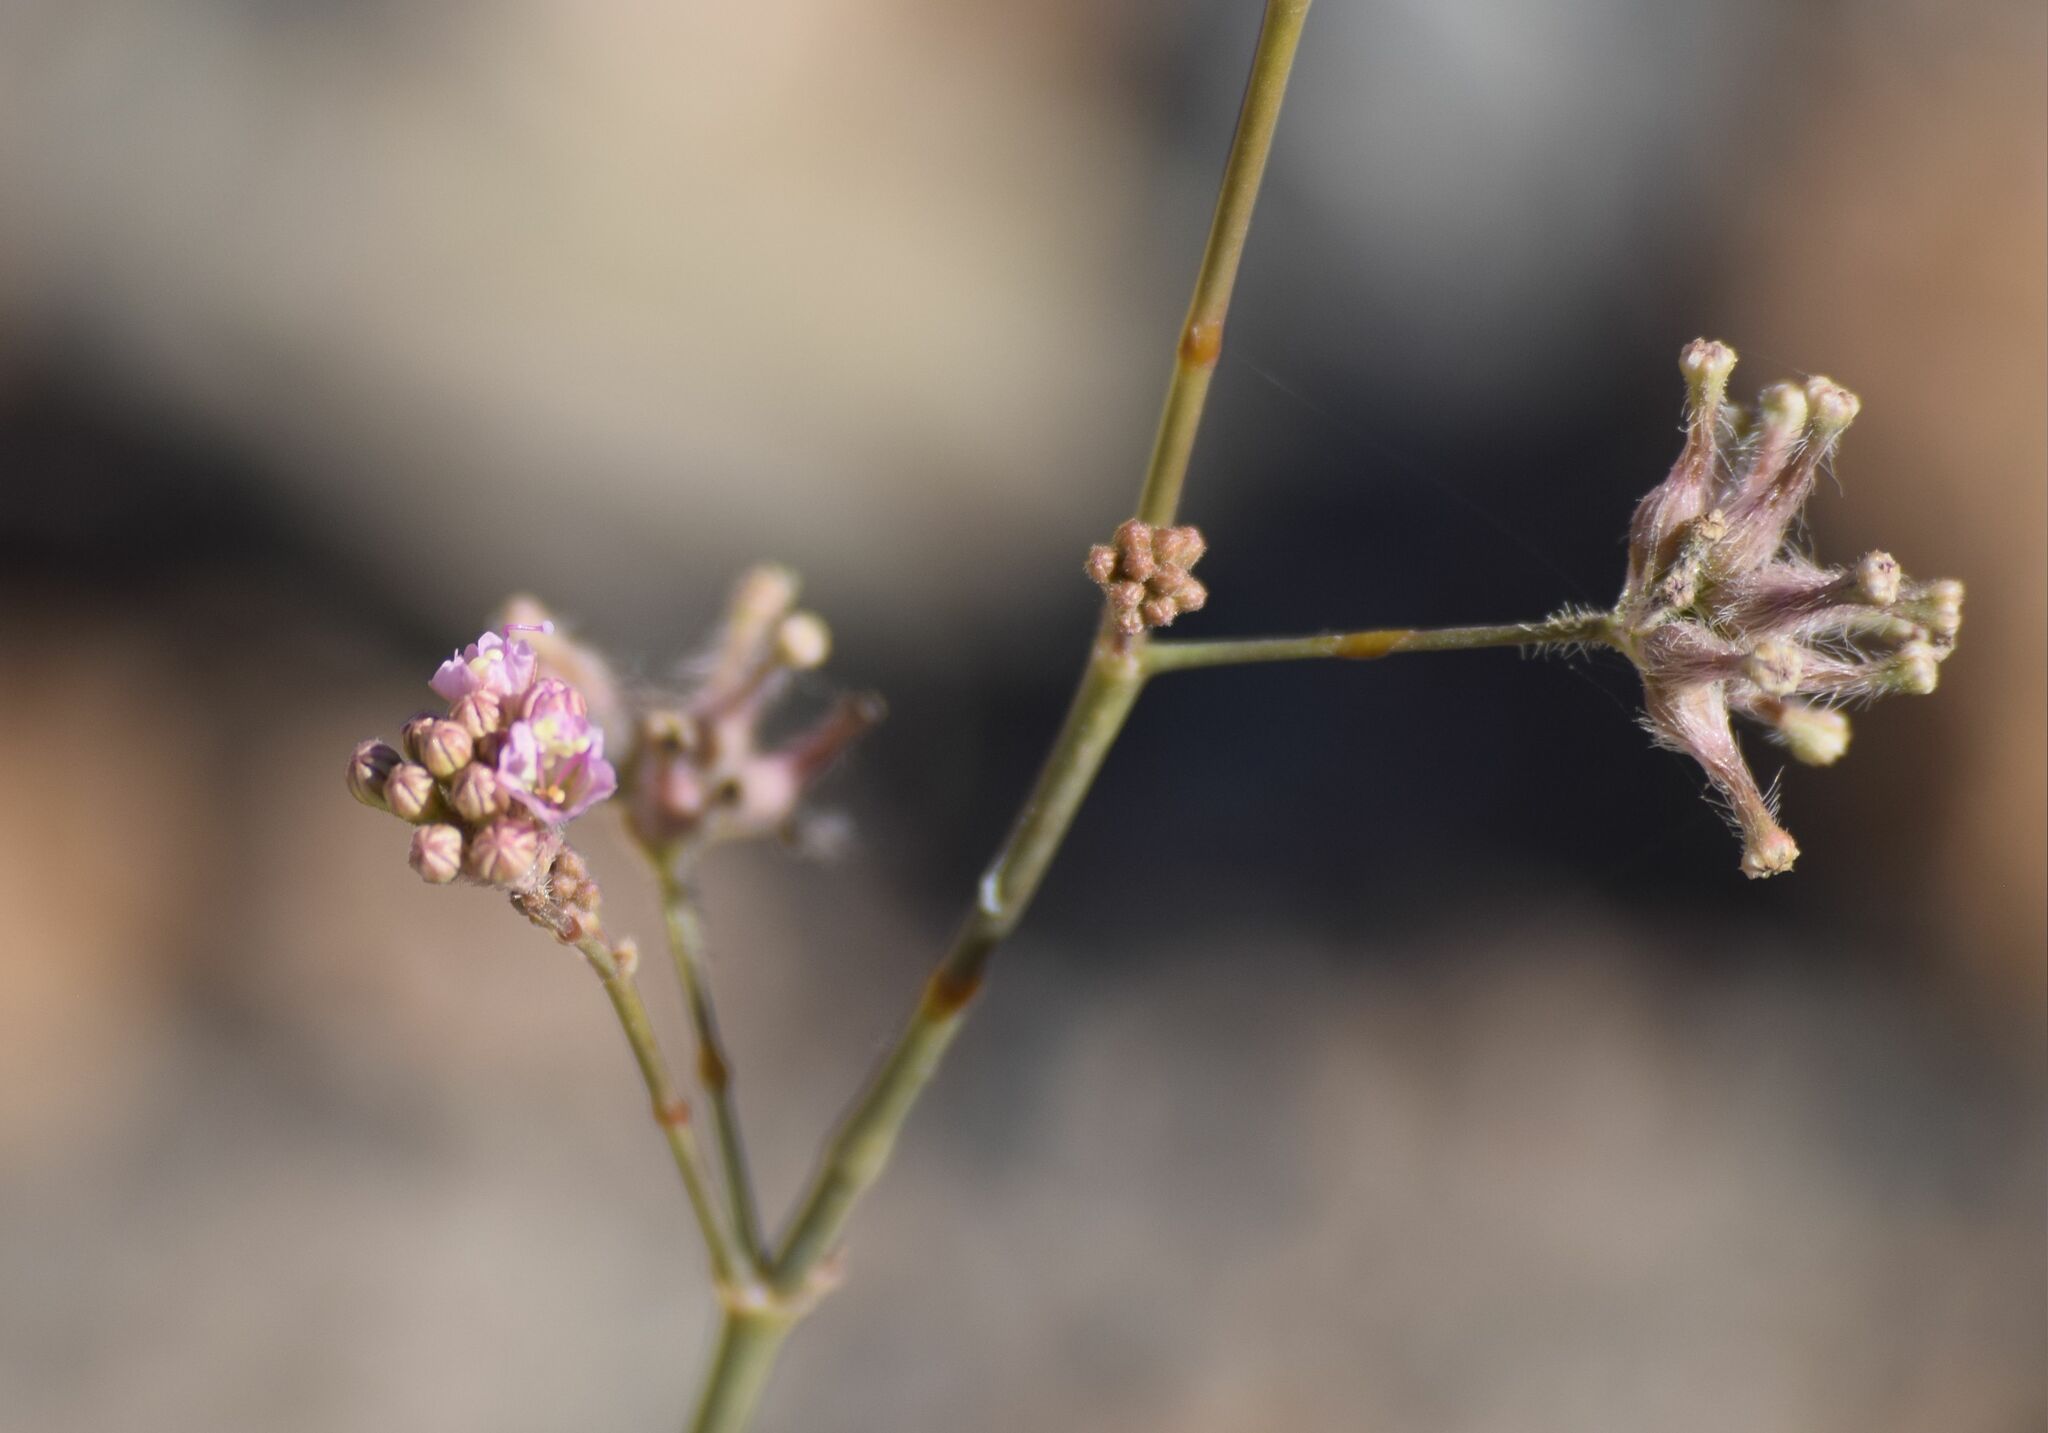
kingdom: Plantae
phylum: Tracheophyta
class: Magnoliopsida
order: Caryophyllales
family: Nyctaginaceae
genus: Anulocaulis
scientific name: Anulocaulis annulatus
